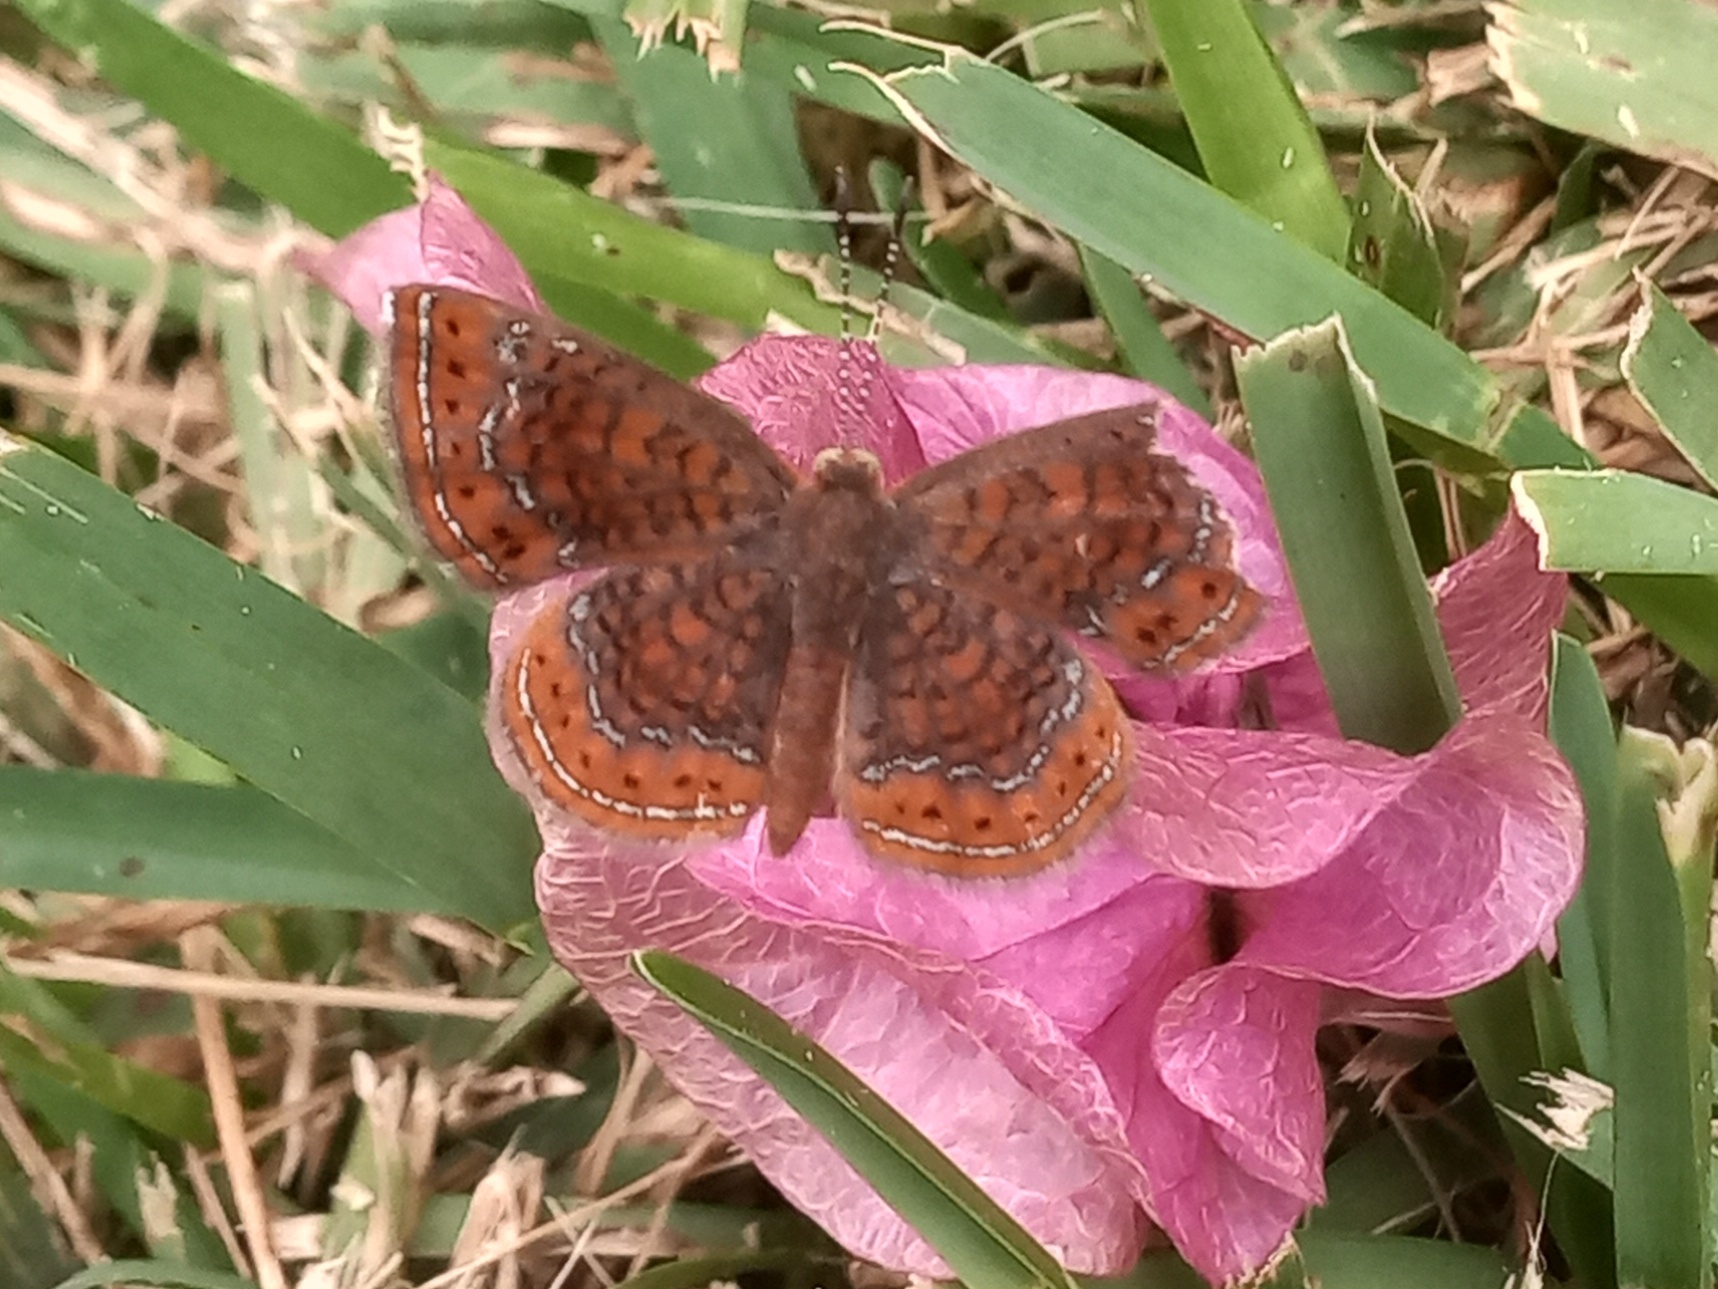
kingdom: Animalia
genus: Calephelis
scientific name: Calephelis
